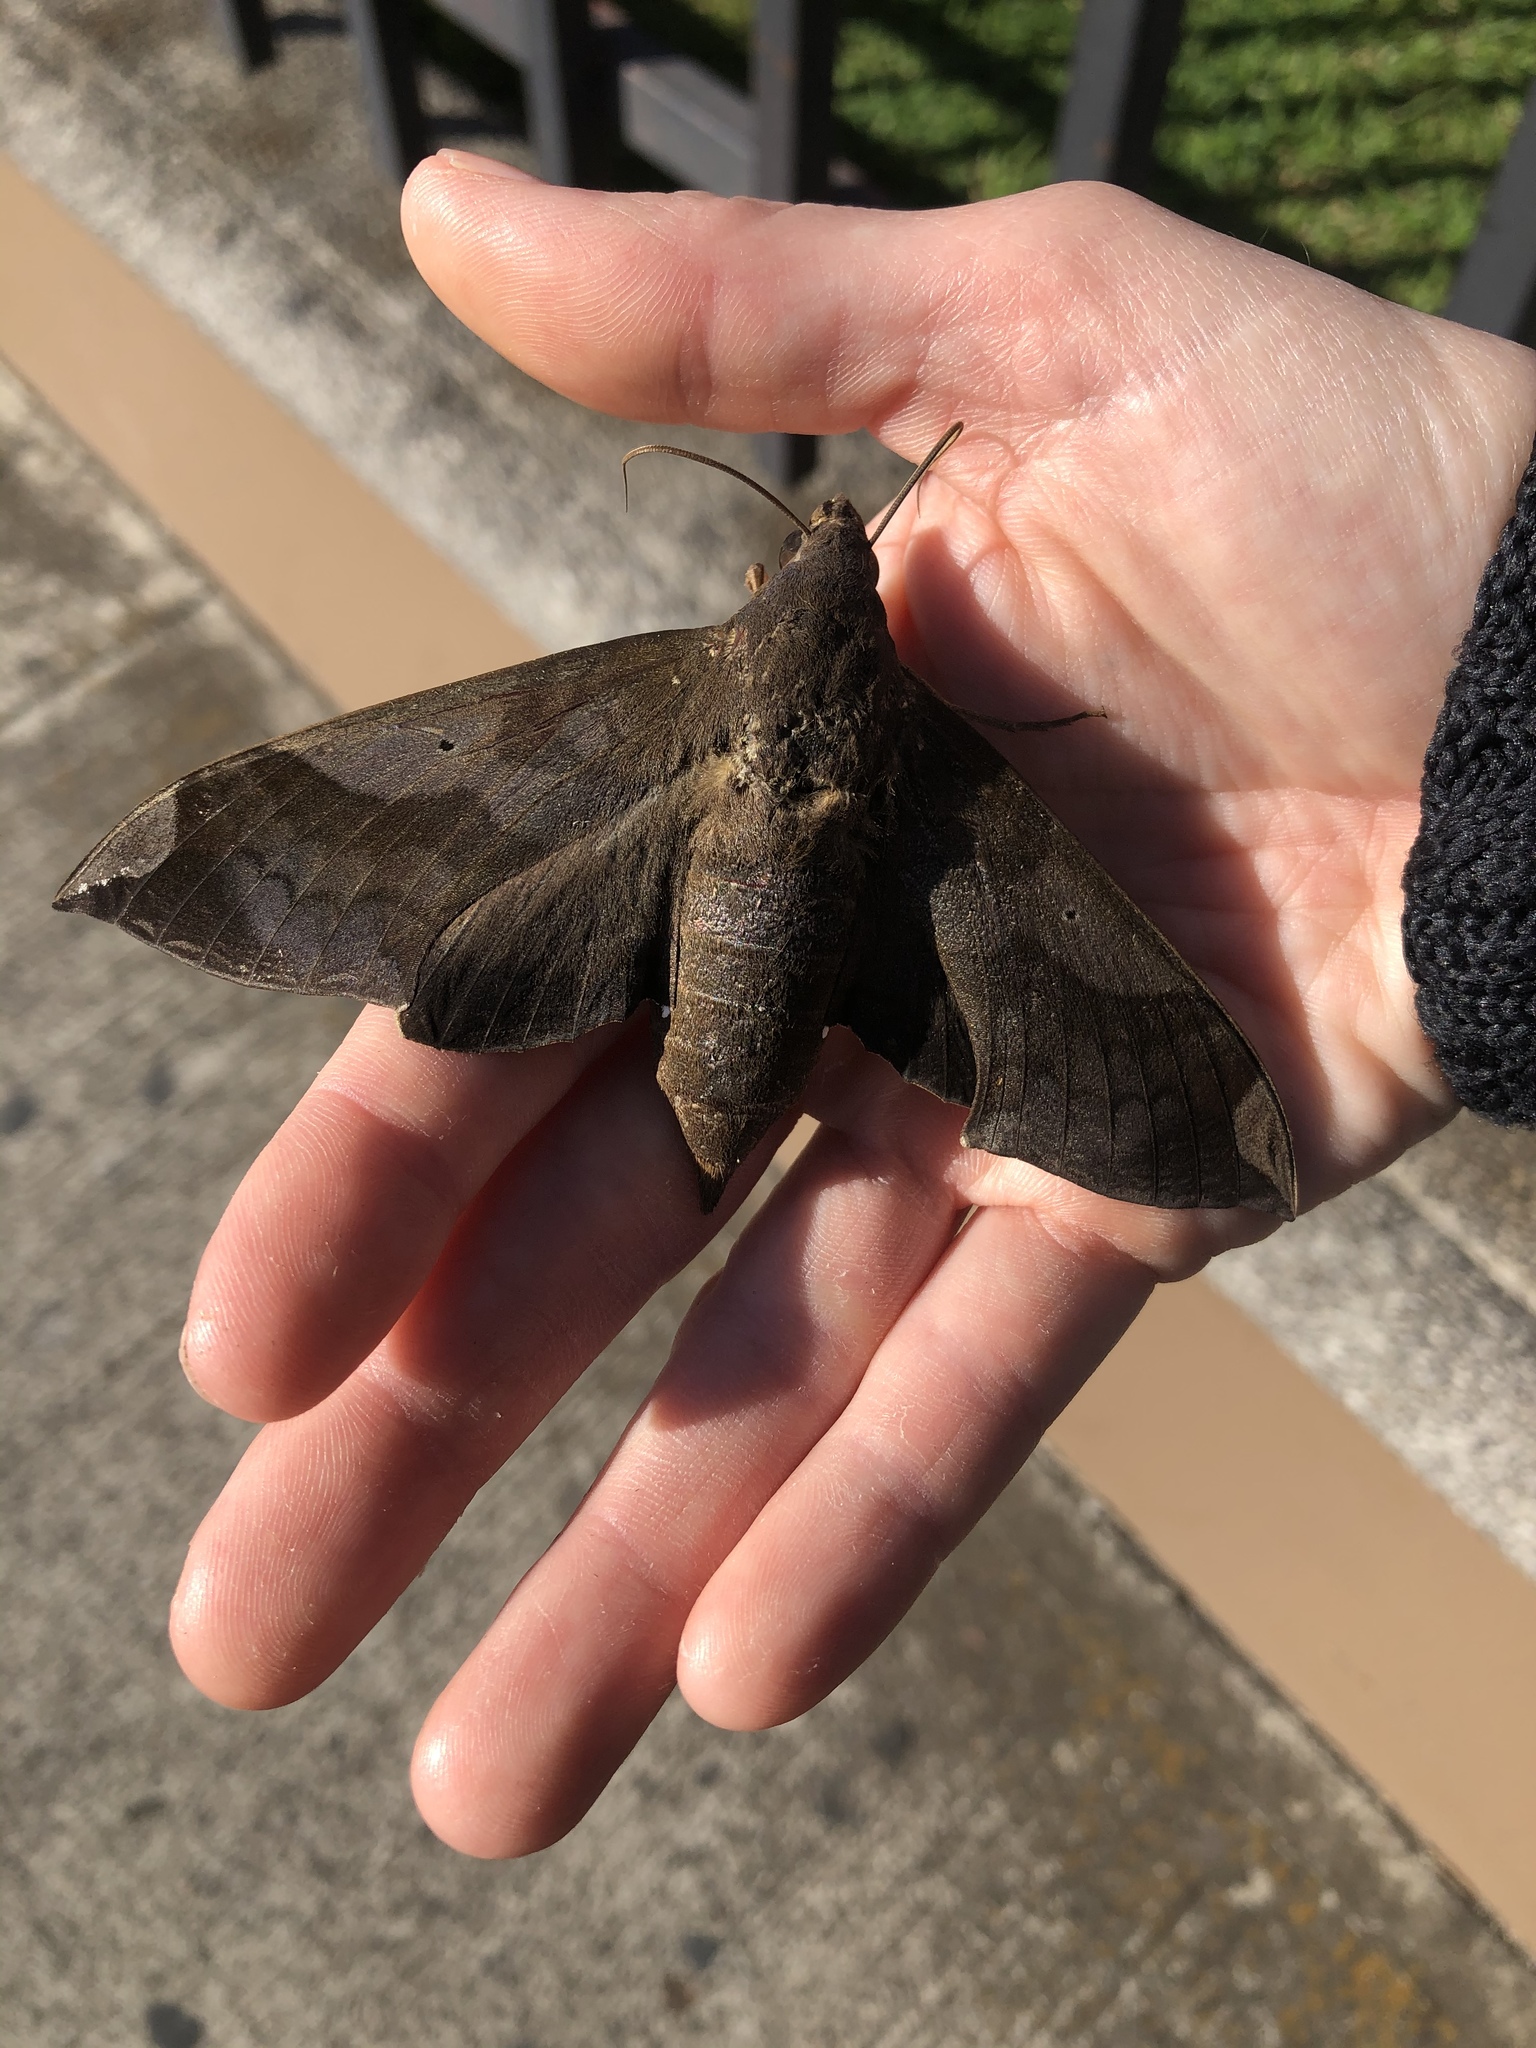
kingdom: Animalia
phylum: Arthropoda
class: Insecta
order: Lepidoptera
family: Sphingidae
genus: Pachylia
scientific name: Pachylia syces
